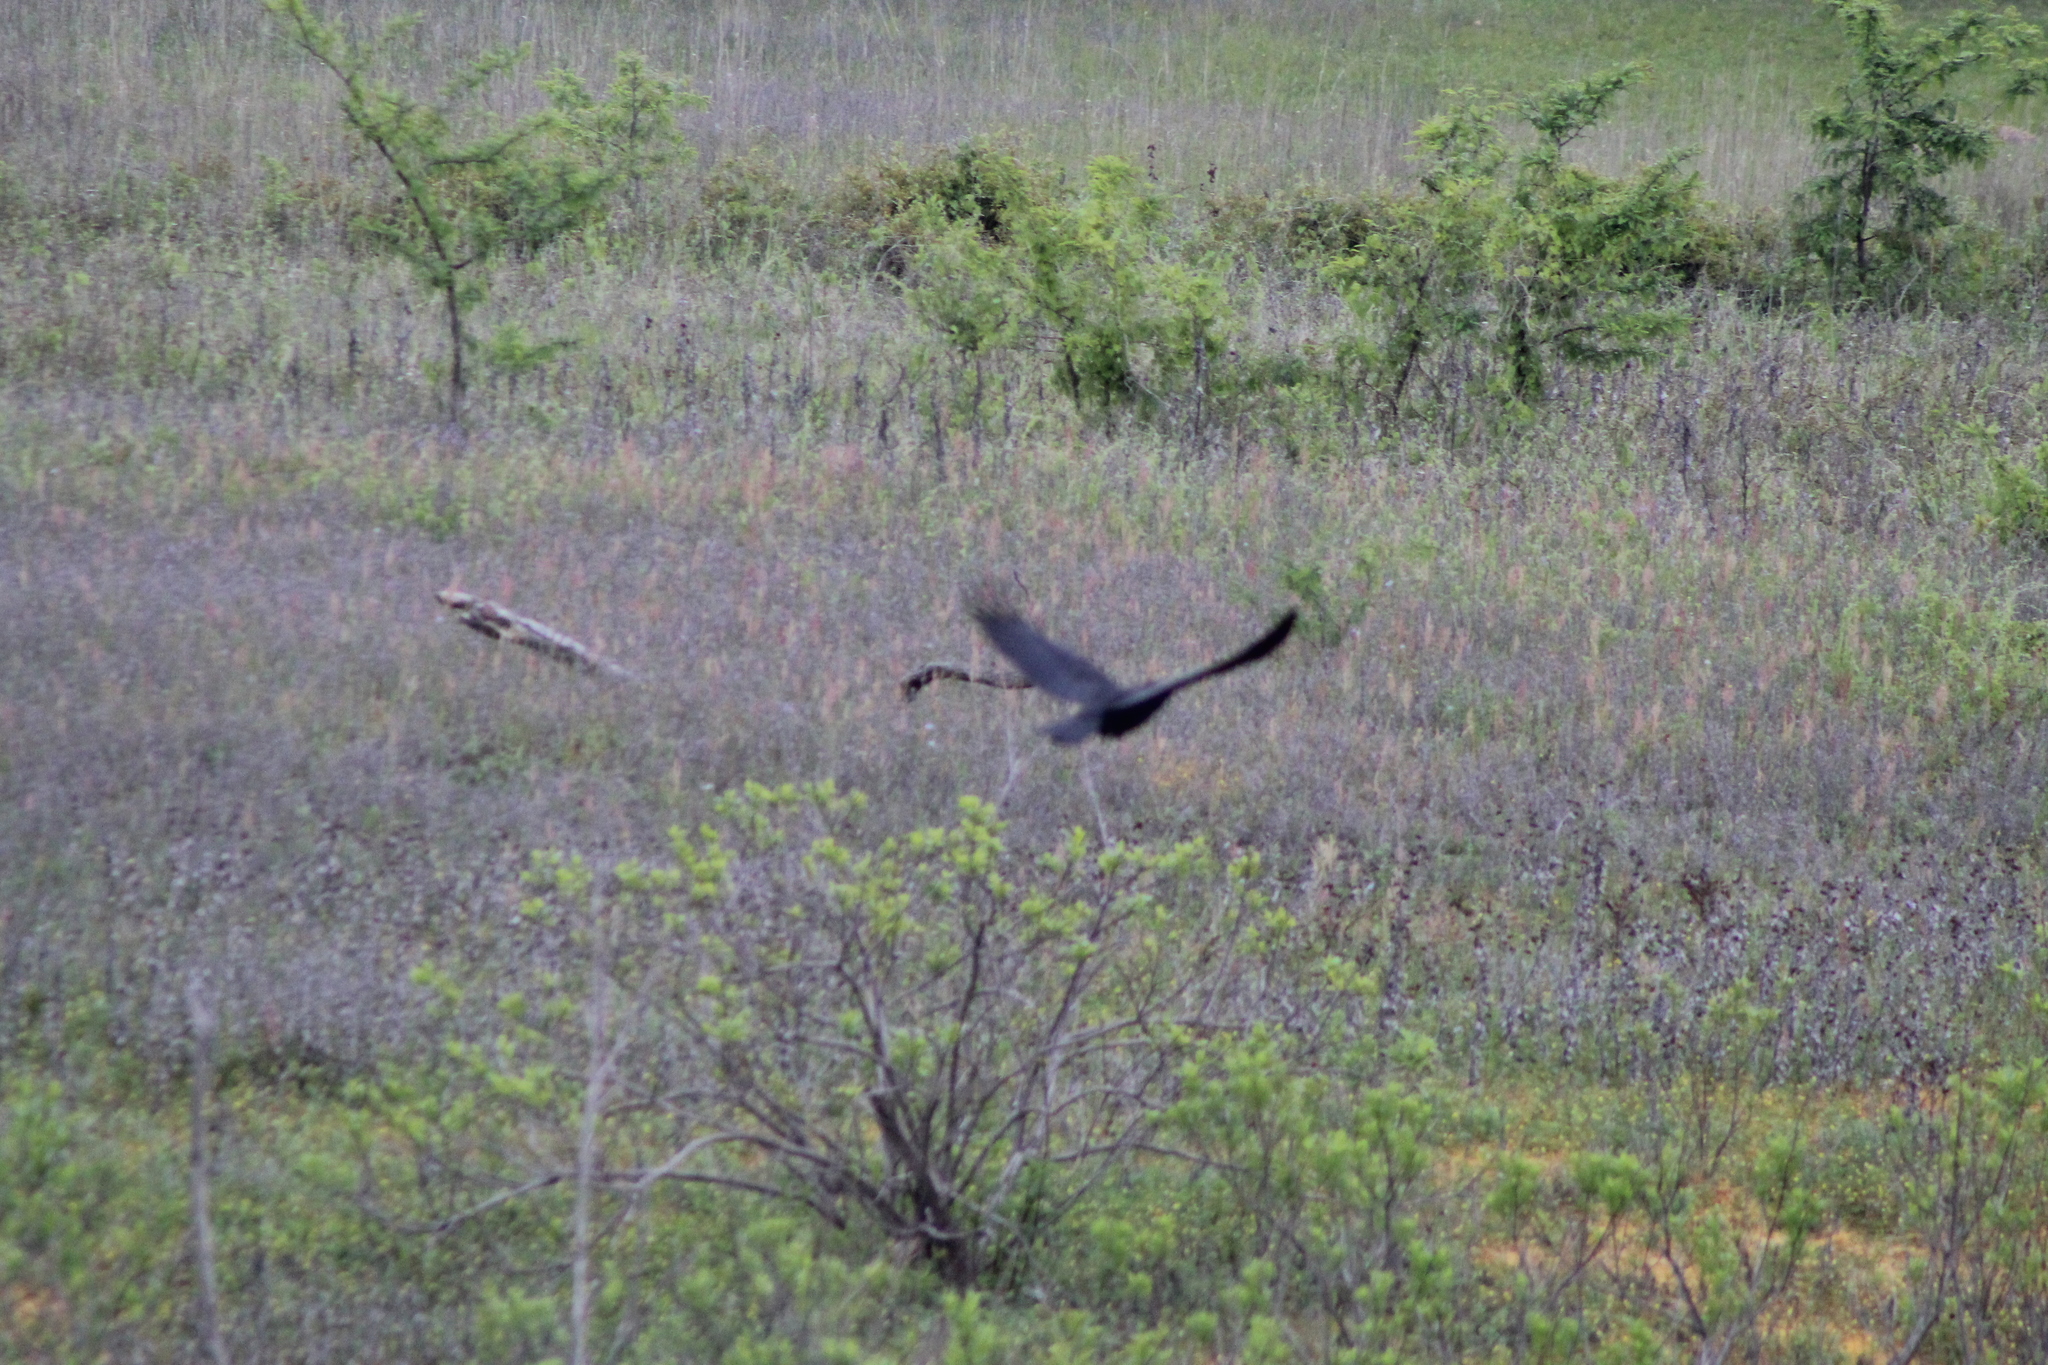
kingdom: Animalia
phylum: Chordata
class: Aves
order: Passeriformes
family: Corvidae
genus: Corvus
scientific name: Corvus brachyrhynchos
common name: American crow
